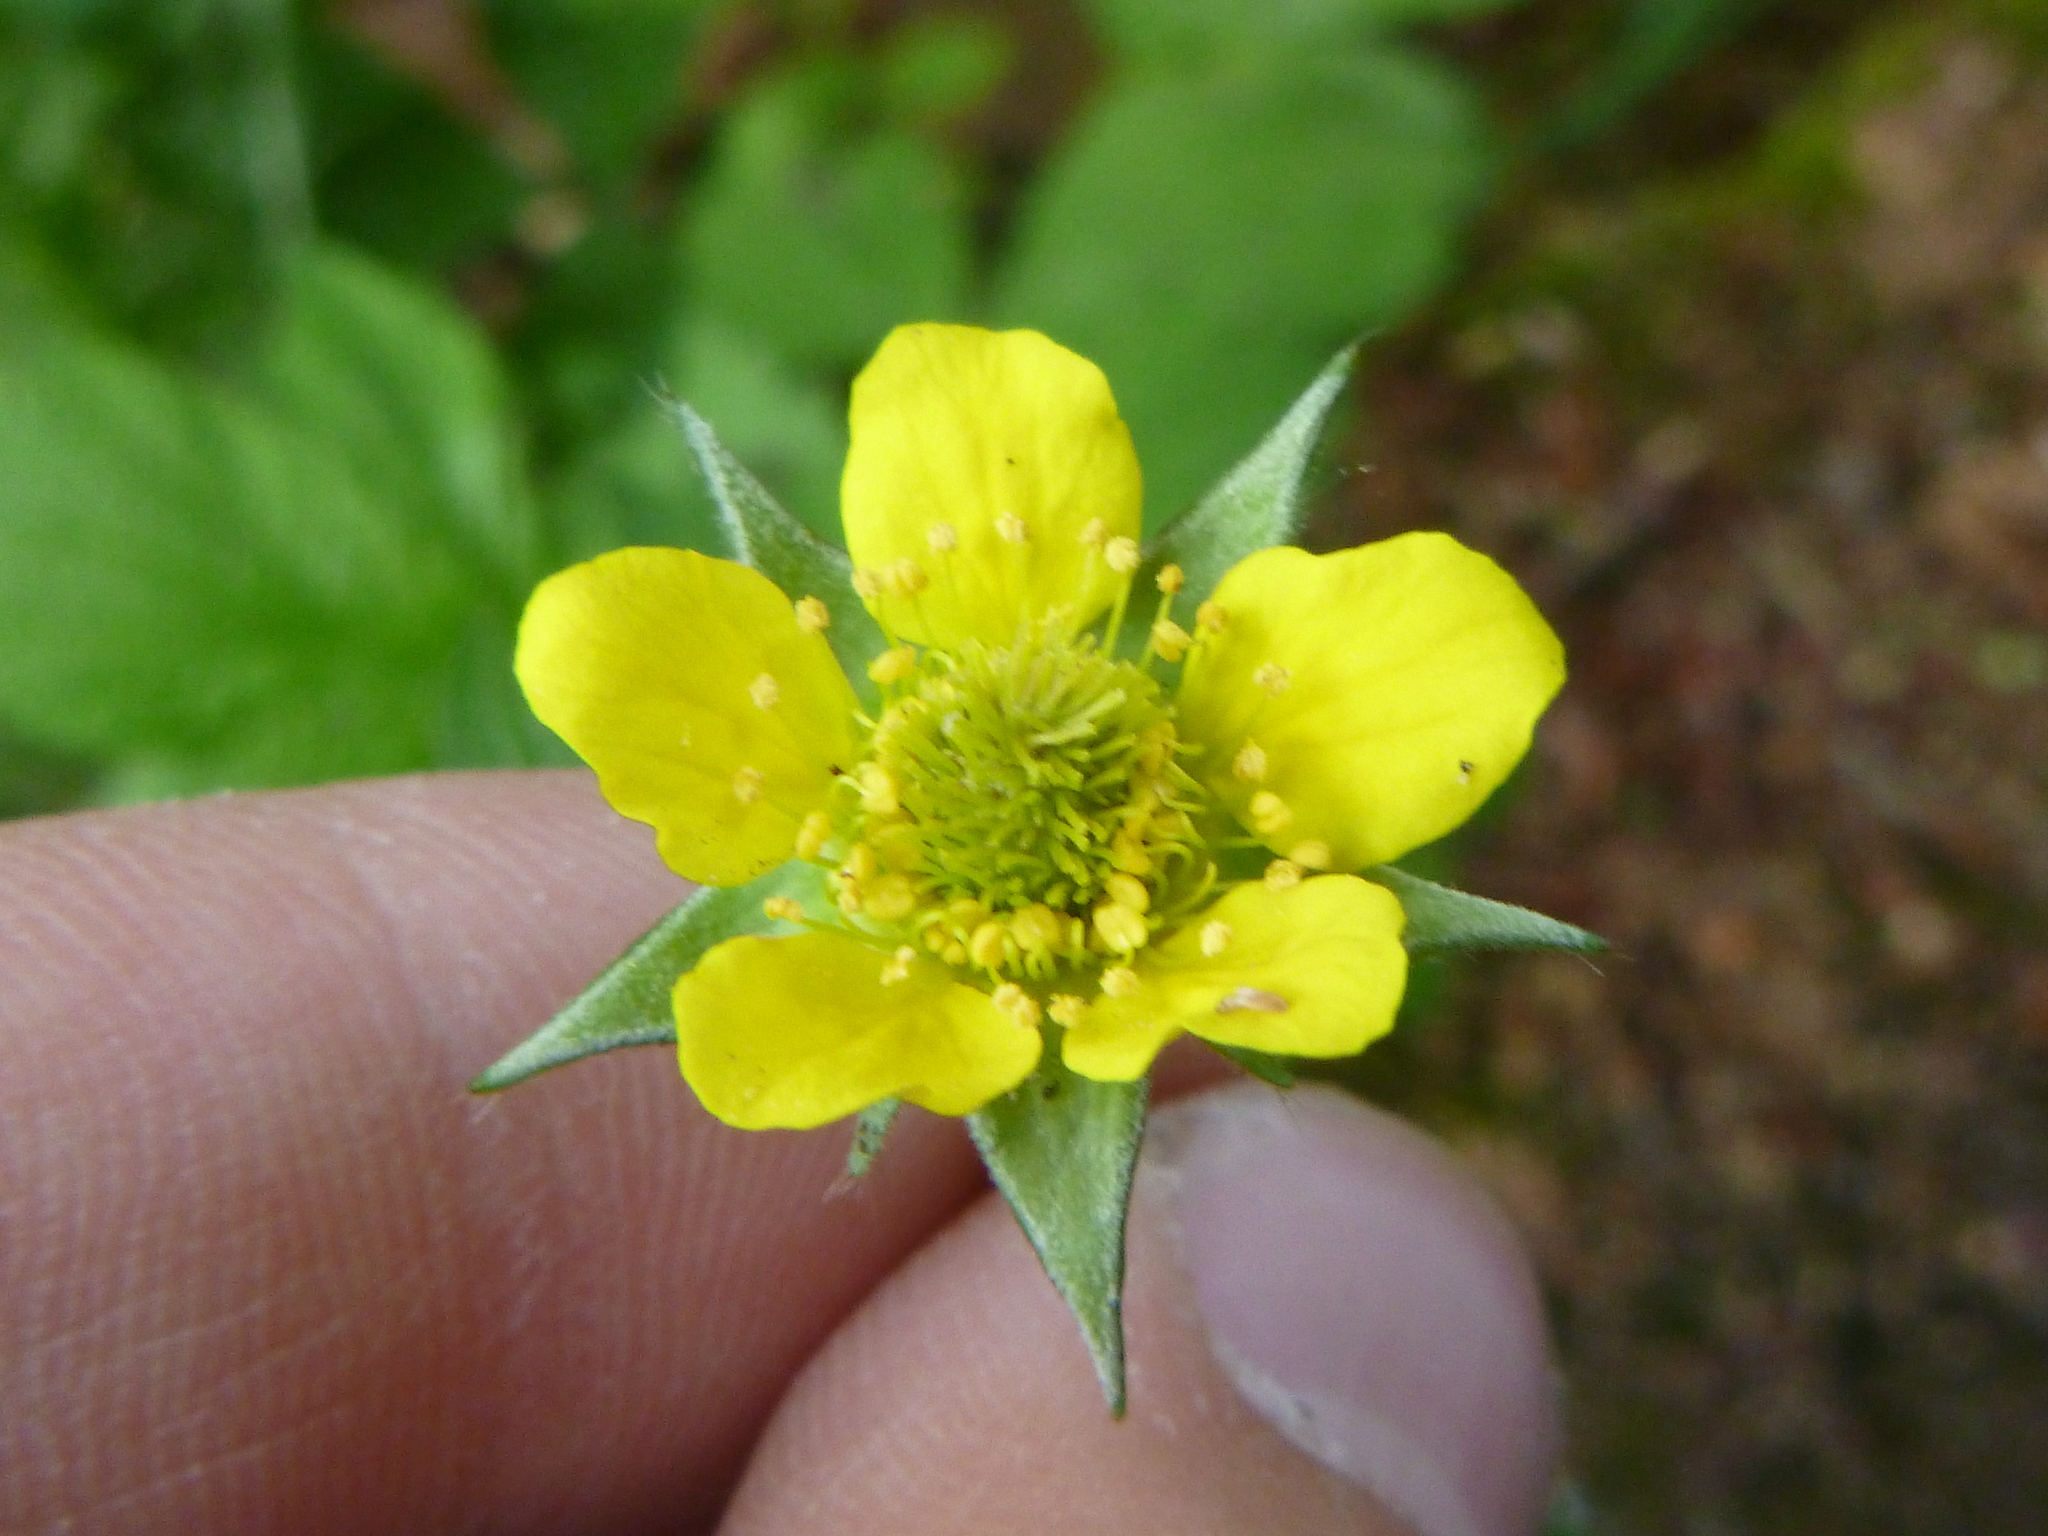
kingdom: Plantae
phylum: Tracheophyta
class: Magnoliopsida
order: Rosales
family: Rosaceae
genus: Geum
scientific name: Geum urbanum
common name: Wood avens
